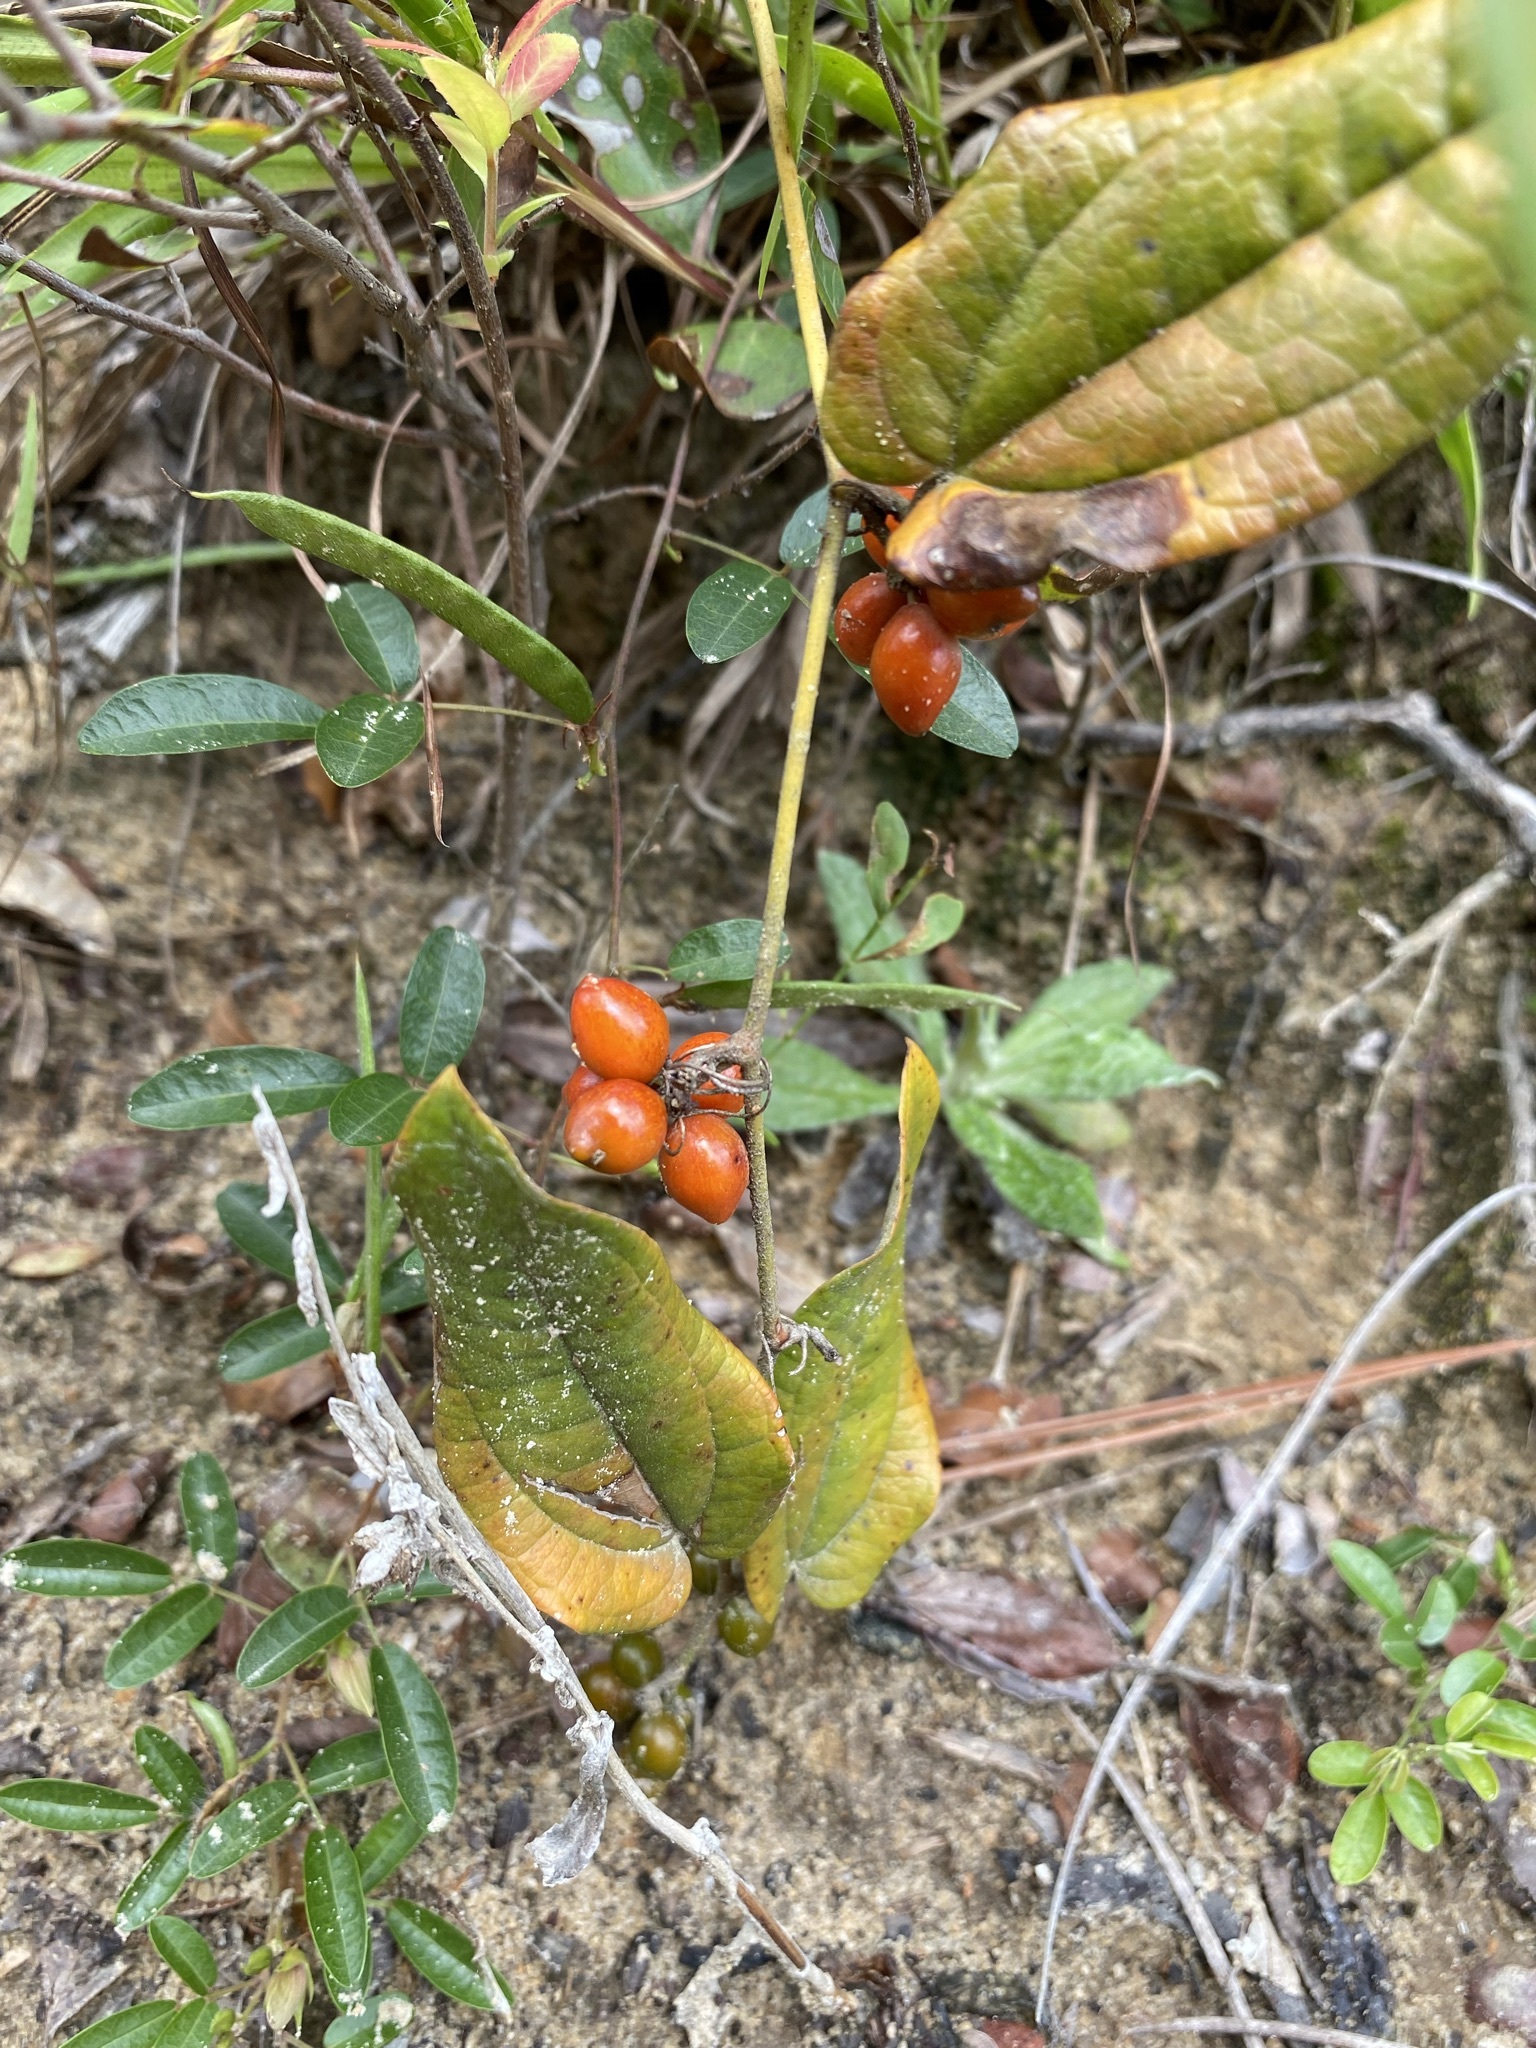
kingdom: Plantae
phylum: Tracheophyta
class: Liliopsida
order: Liliales
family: Smilacaceae
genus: Smilax
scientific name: Smilax pumila
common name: Sarsaparilla-vine
